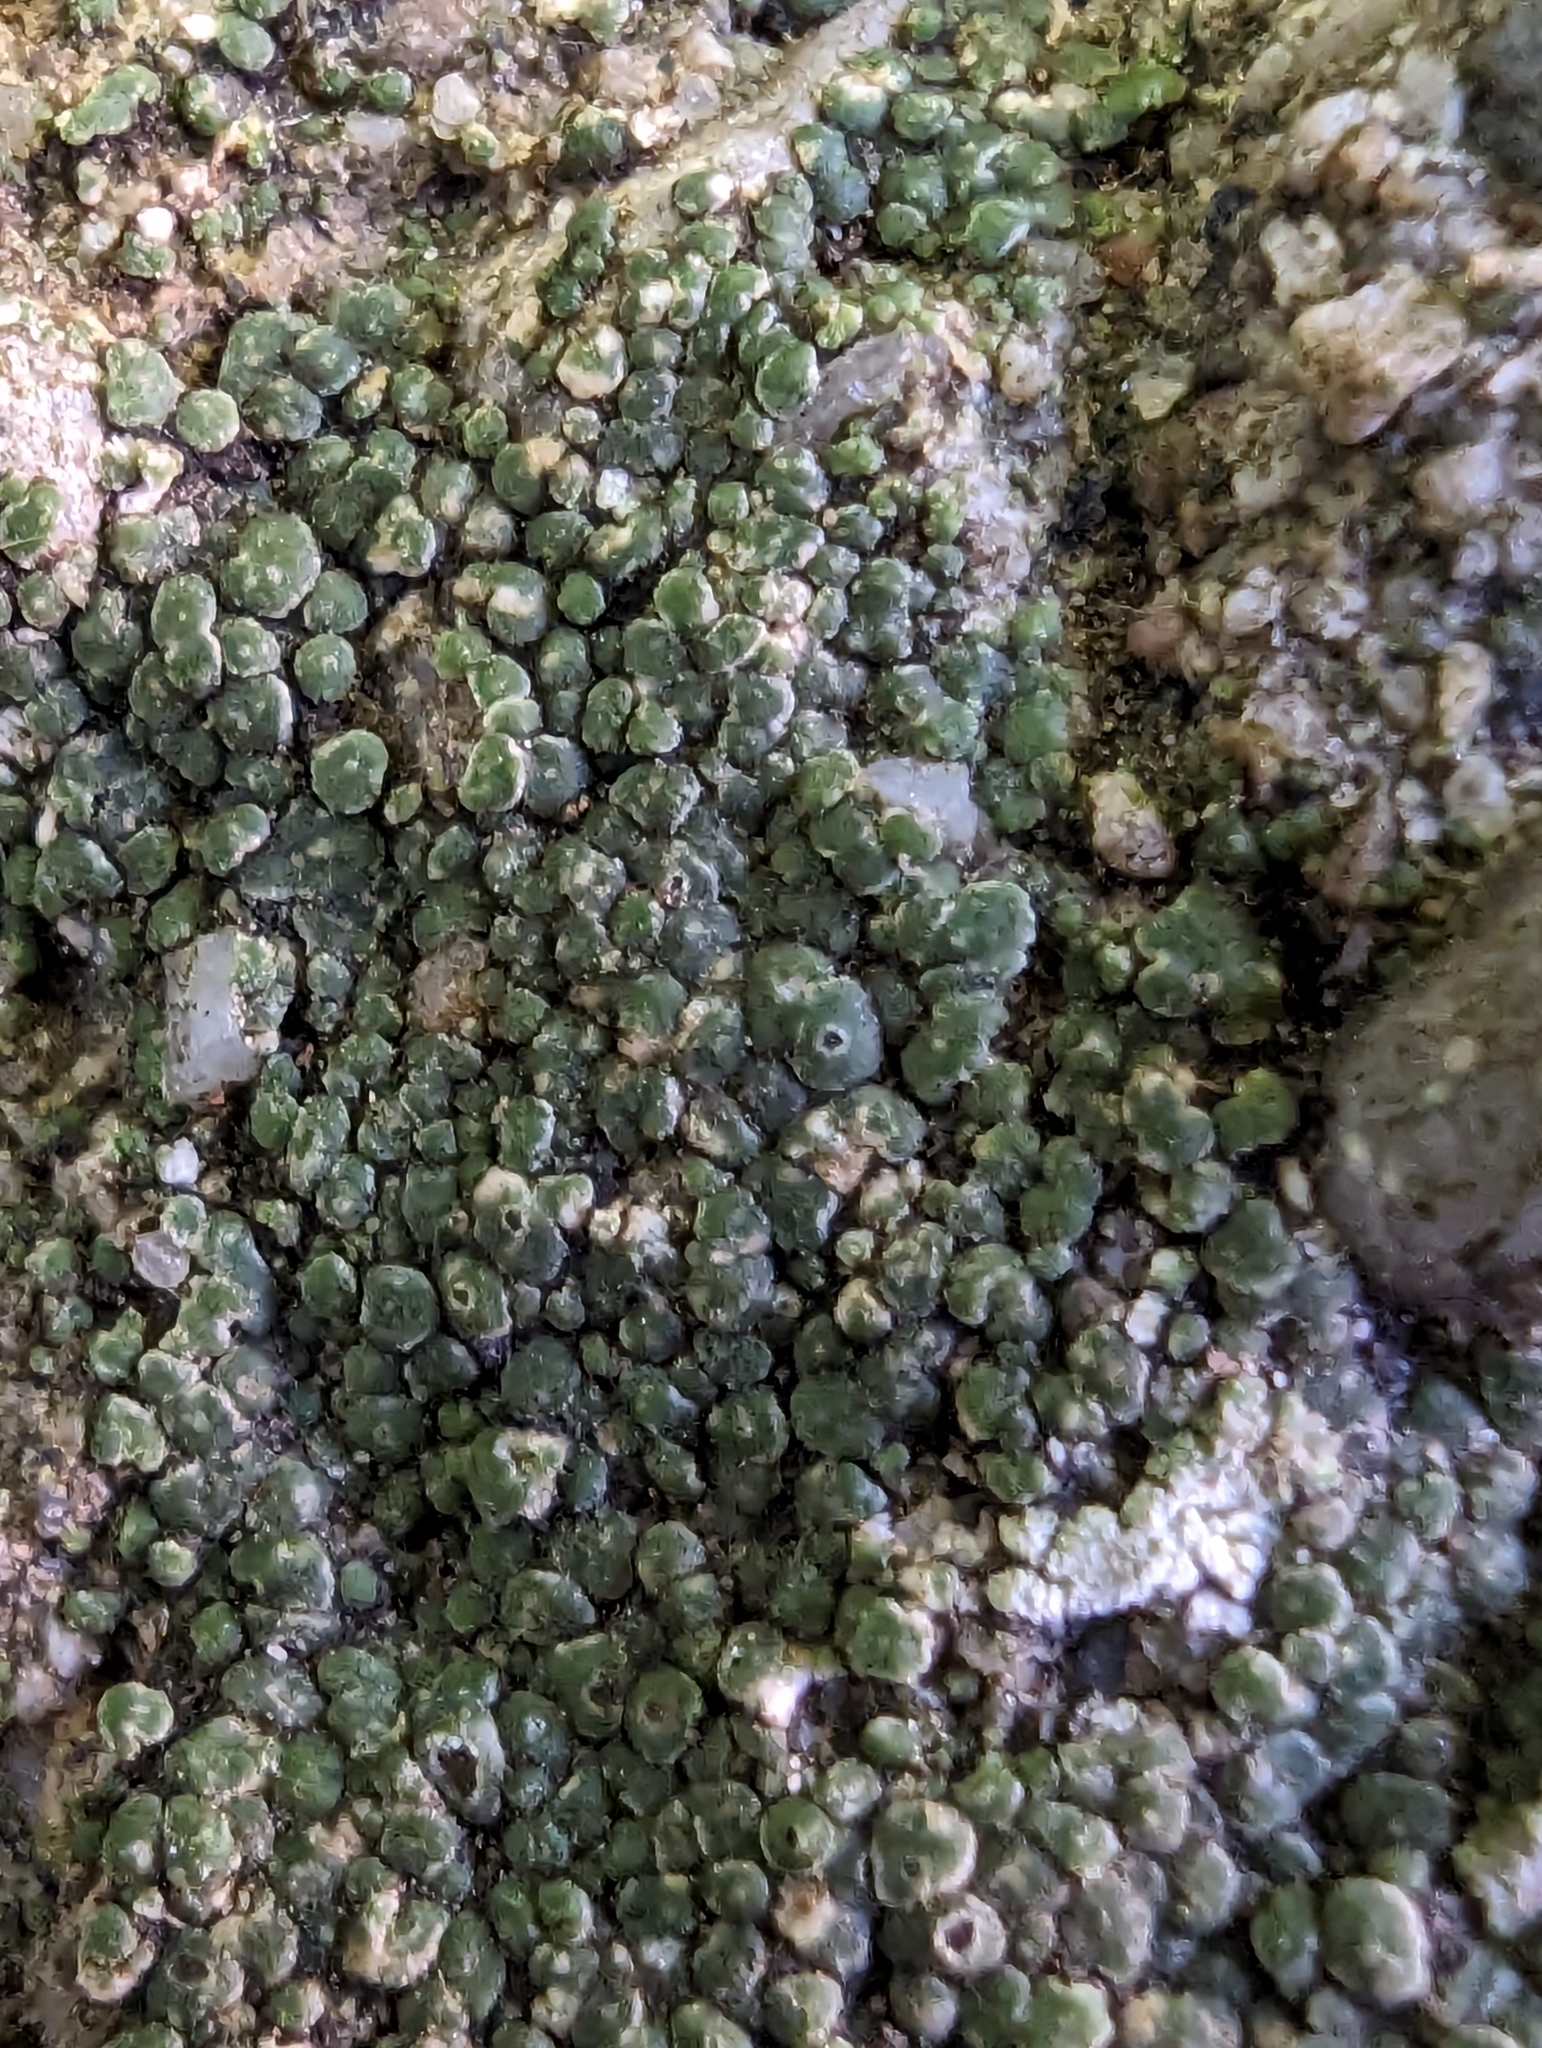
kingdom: Fungi
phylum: Ascomycota
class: Lecanoromycetes
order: Pertusariales
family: Megasporaceae
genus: Circinaria
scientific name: Circinaria contorta
